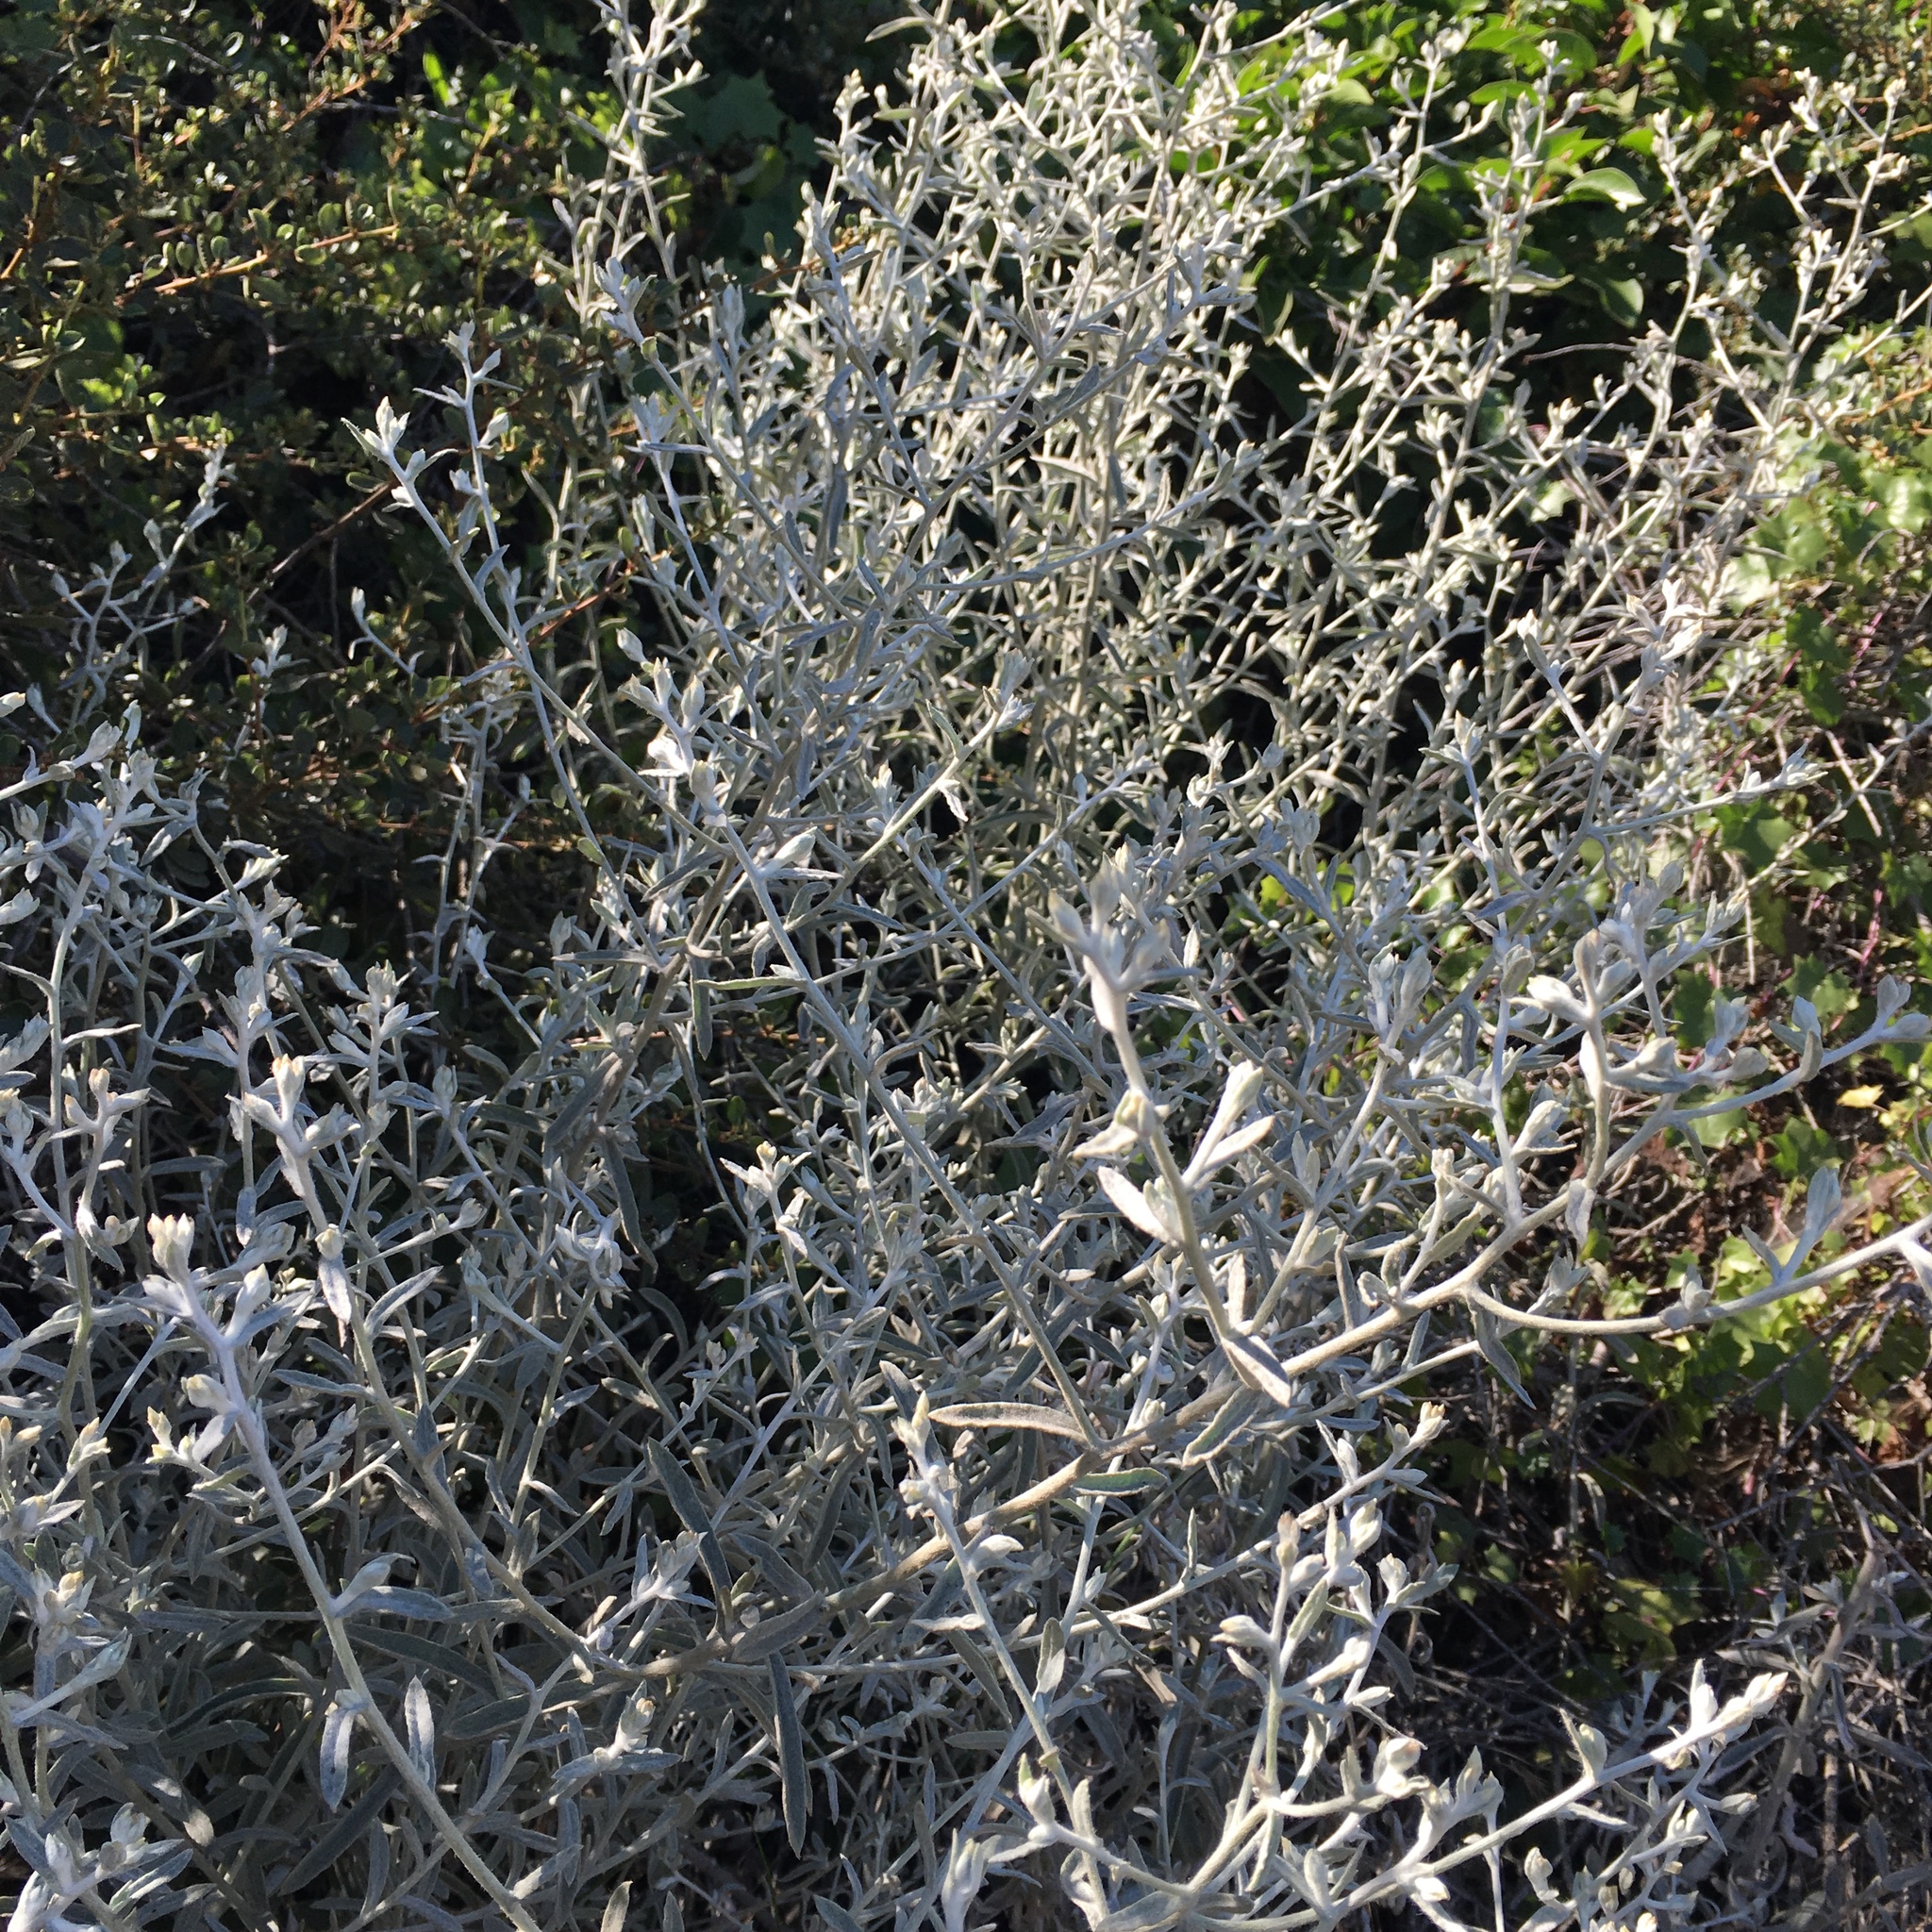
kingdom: Plantae
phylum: Tracheophyta
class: Magnoliopsida
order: Asterales
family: Asteraceae
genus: Pseudognaphalium
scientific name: Pseudognaphalium microcephalum
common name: San diego rabbit-tobacco
